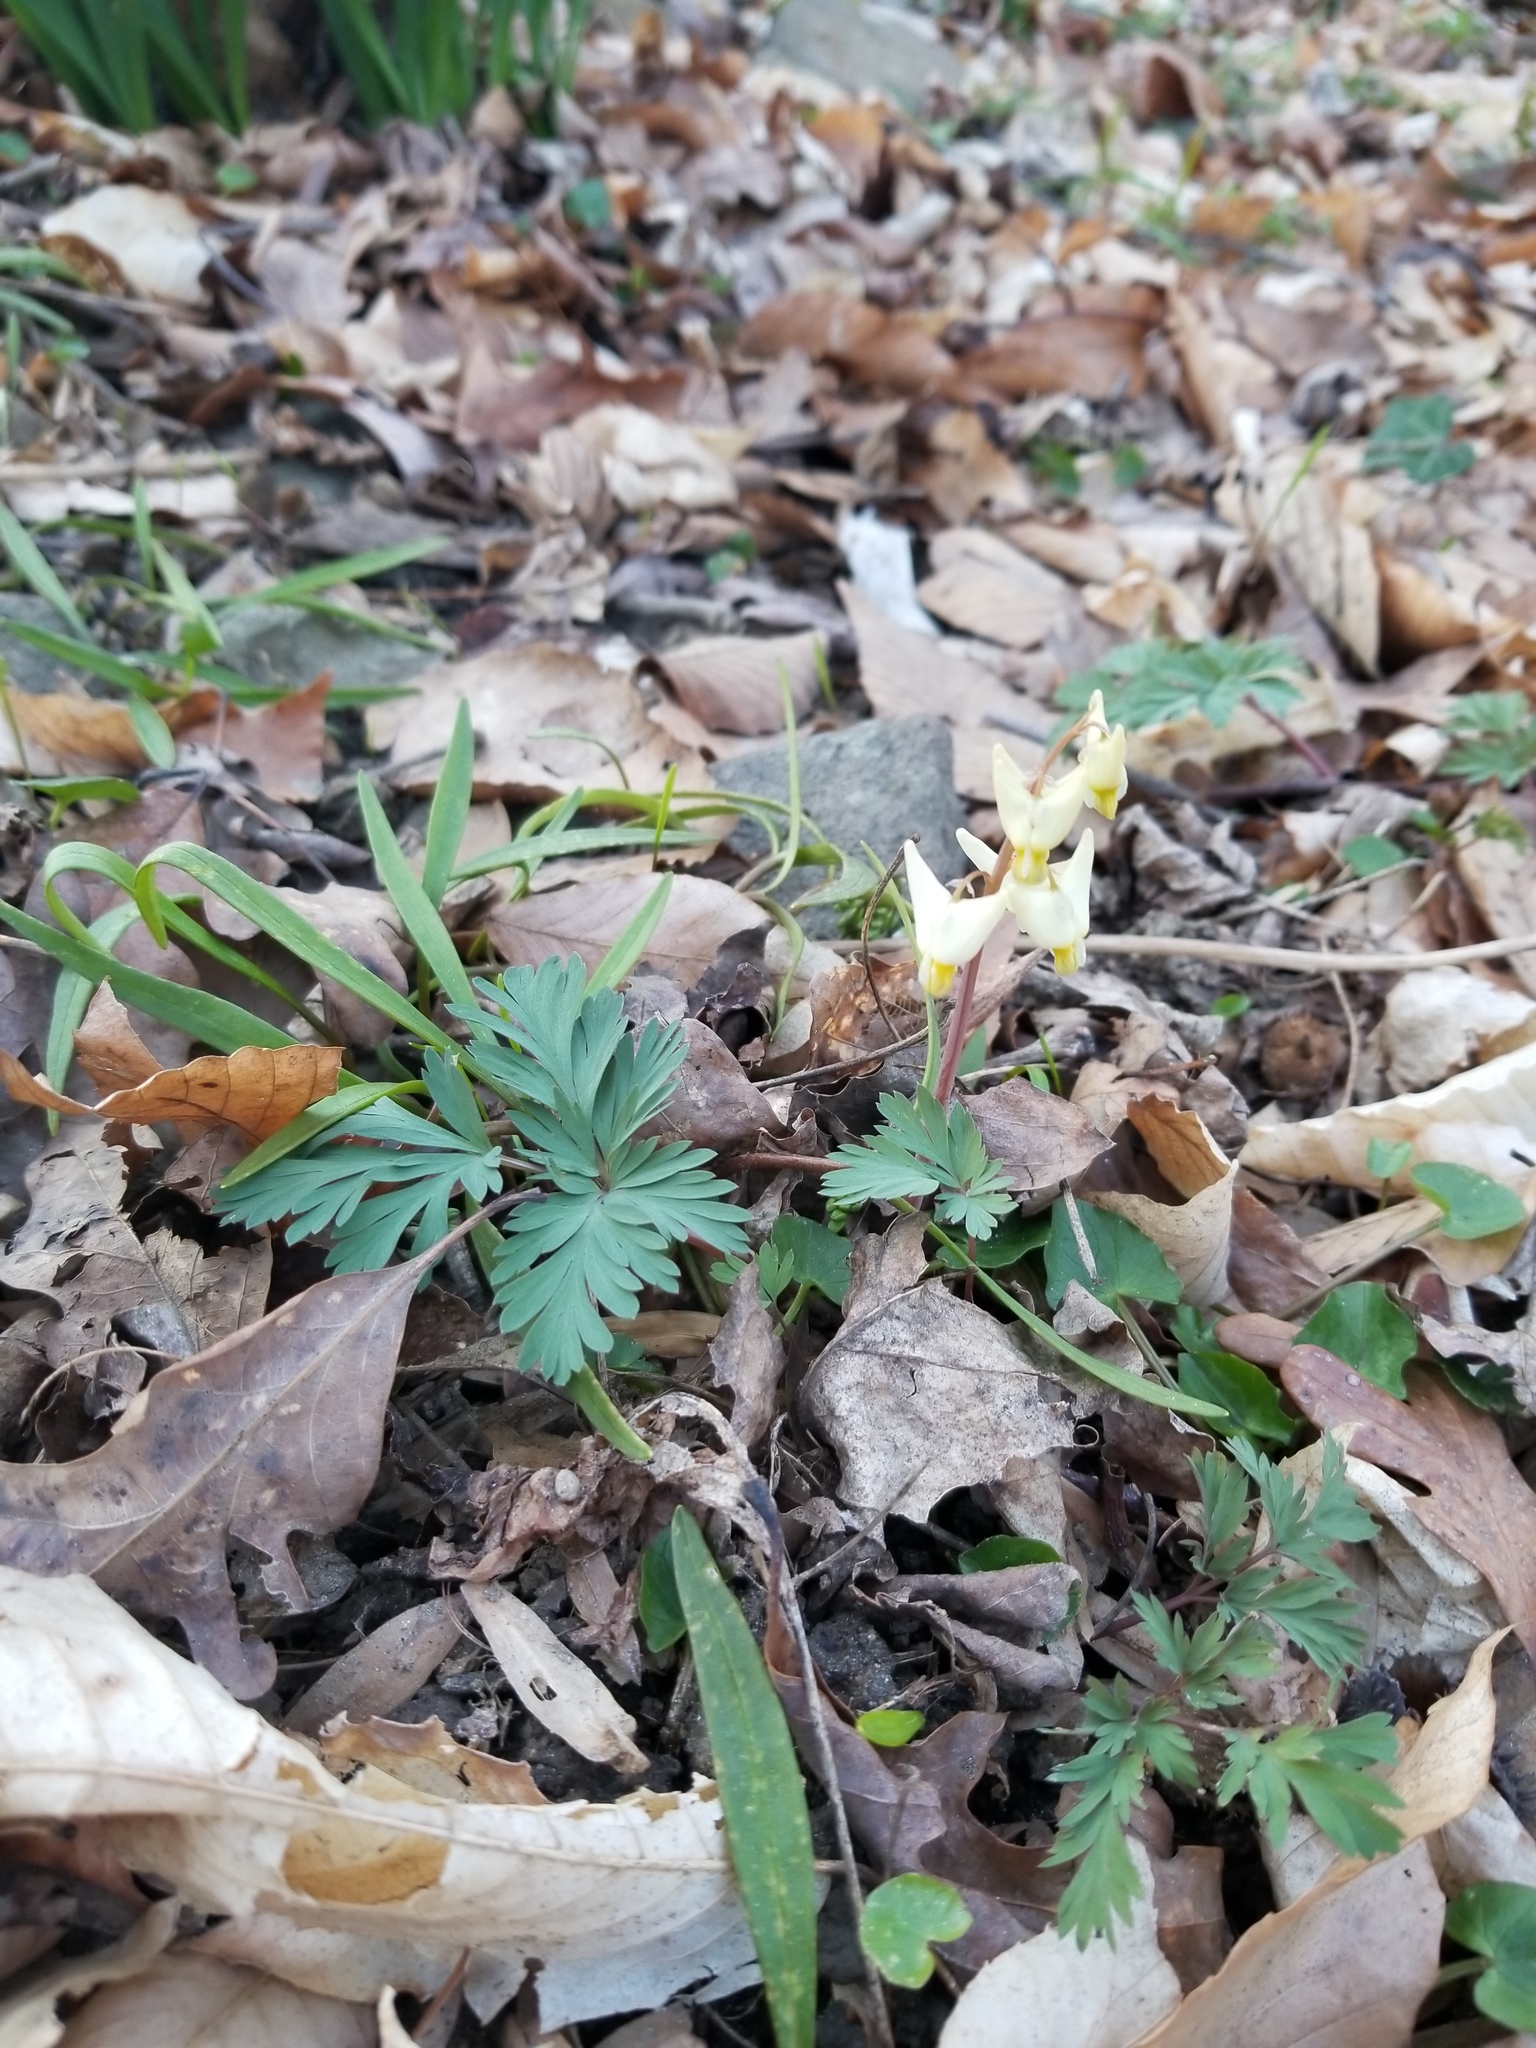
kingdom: Plantae
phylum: Tracheophyta
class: Magnoliopsida
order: Ranunculales
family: Papaveraceae
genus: Dicentra
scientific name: Dicentra cucullaria
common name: Dutchman's breeches
